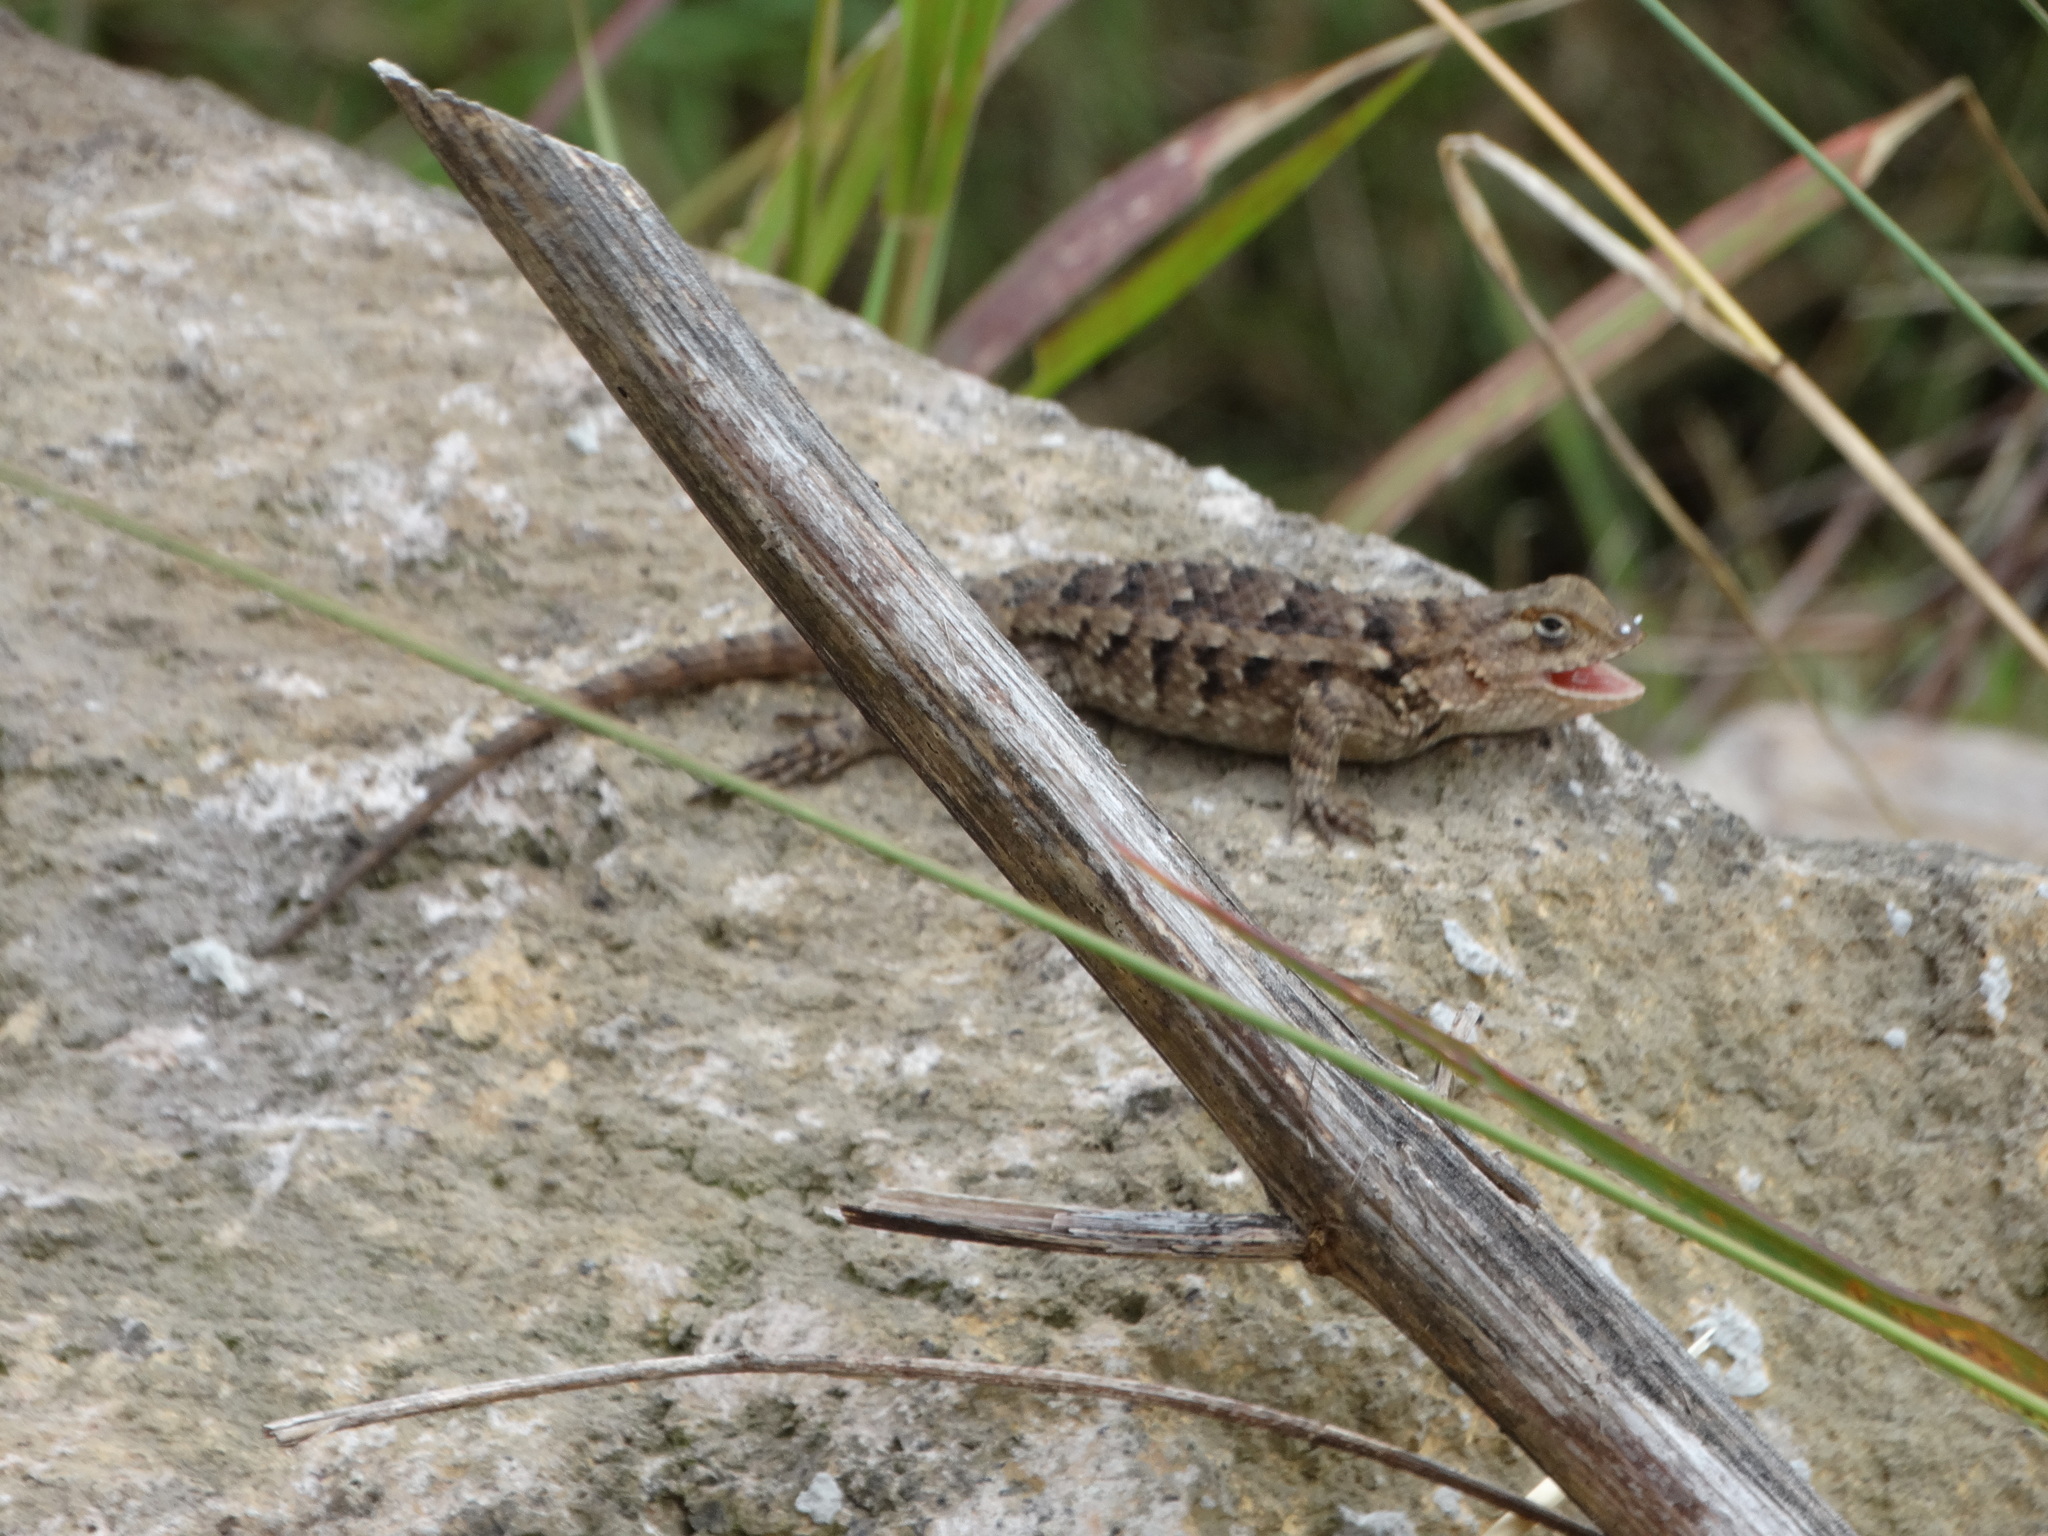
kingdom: Animalia
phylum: Chordata
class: Squamata
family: Phrynosomatidae
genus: Sceloporus
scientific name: Sceloporus spinosus
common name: Blue-spotted spiny lizard [caeruleopunctatus]
